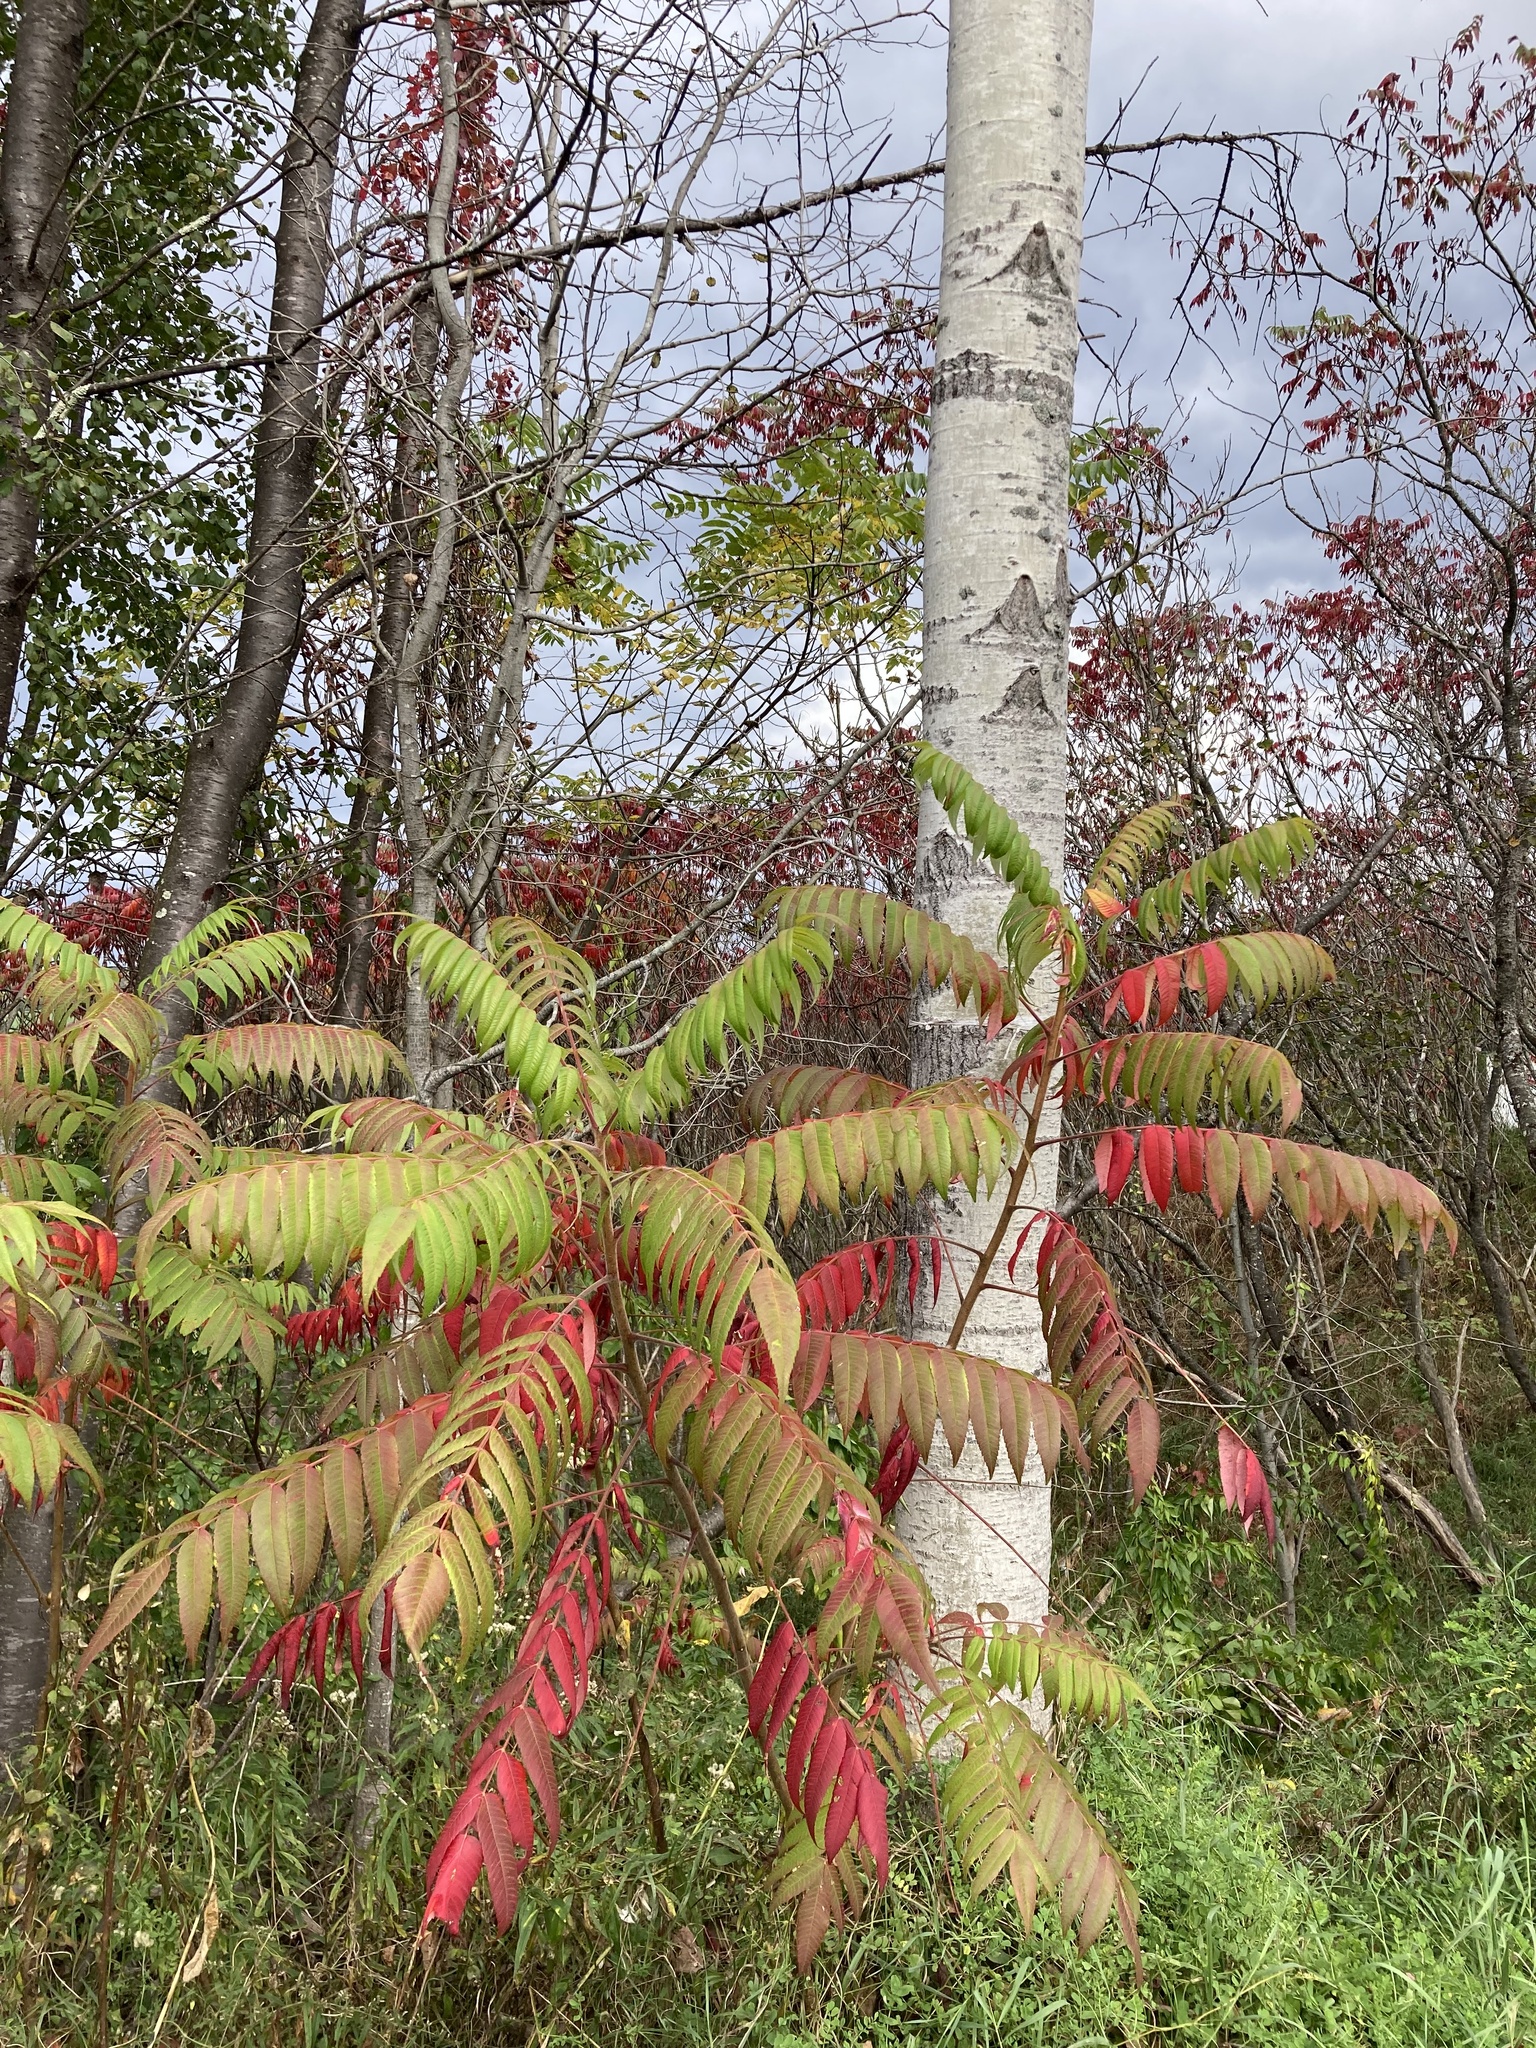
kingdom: Plantae
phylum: Tracheophyta
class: Magnoliopsida
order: Sapindales
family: Anacardiaceae
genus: Rhus
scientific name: Rhus typhina
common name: Staghorn sumac
